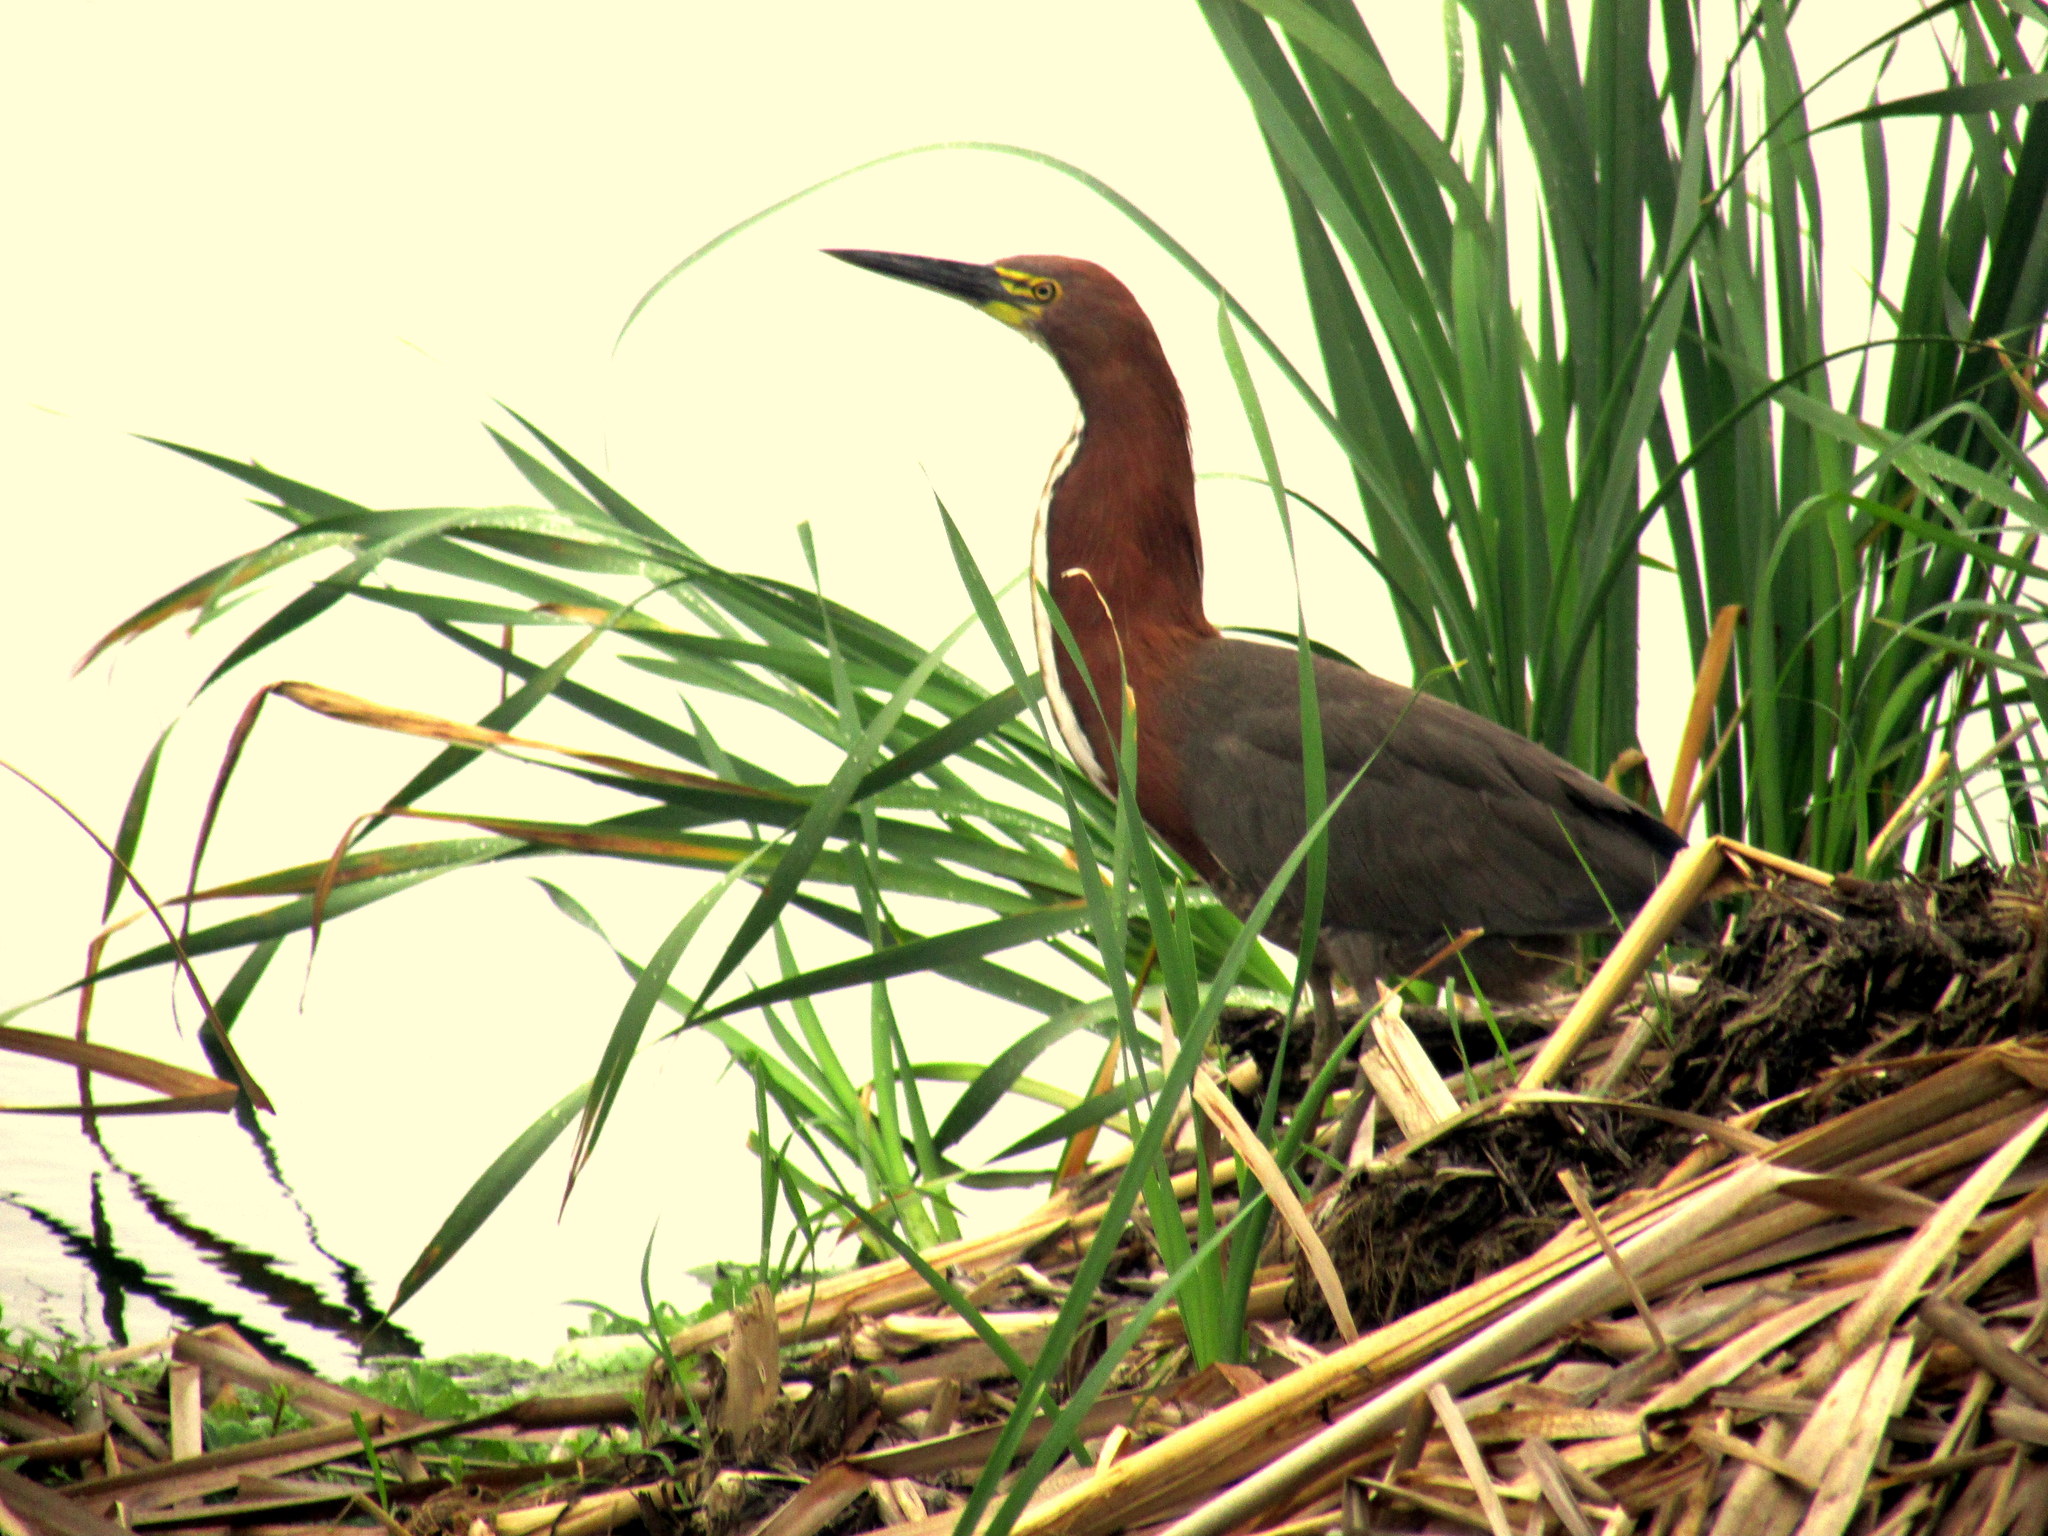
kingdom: Animalia
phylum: Chordata
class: Aves
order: Pelecaniformes
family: Ardeidae
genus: Tigrisoma
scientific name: Tigrisoma lineatum
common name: Rufescent tiger-heron
